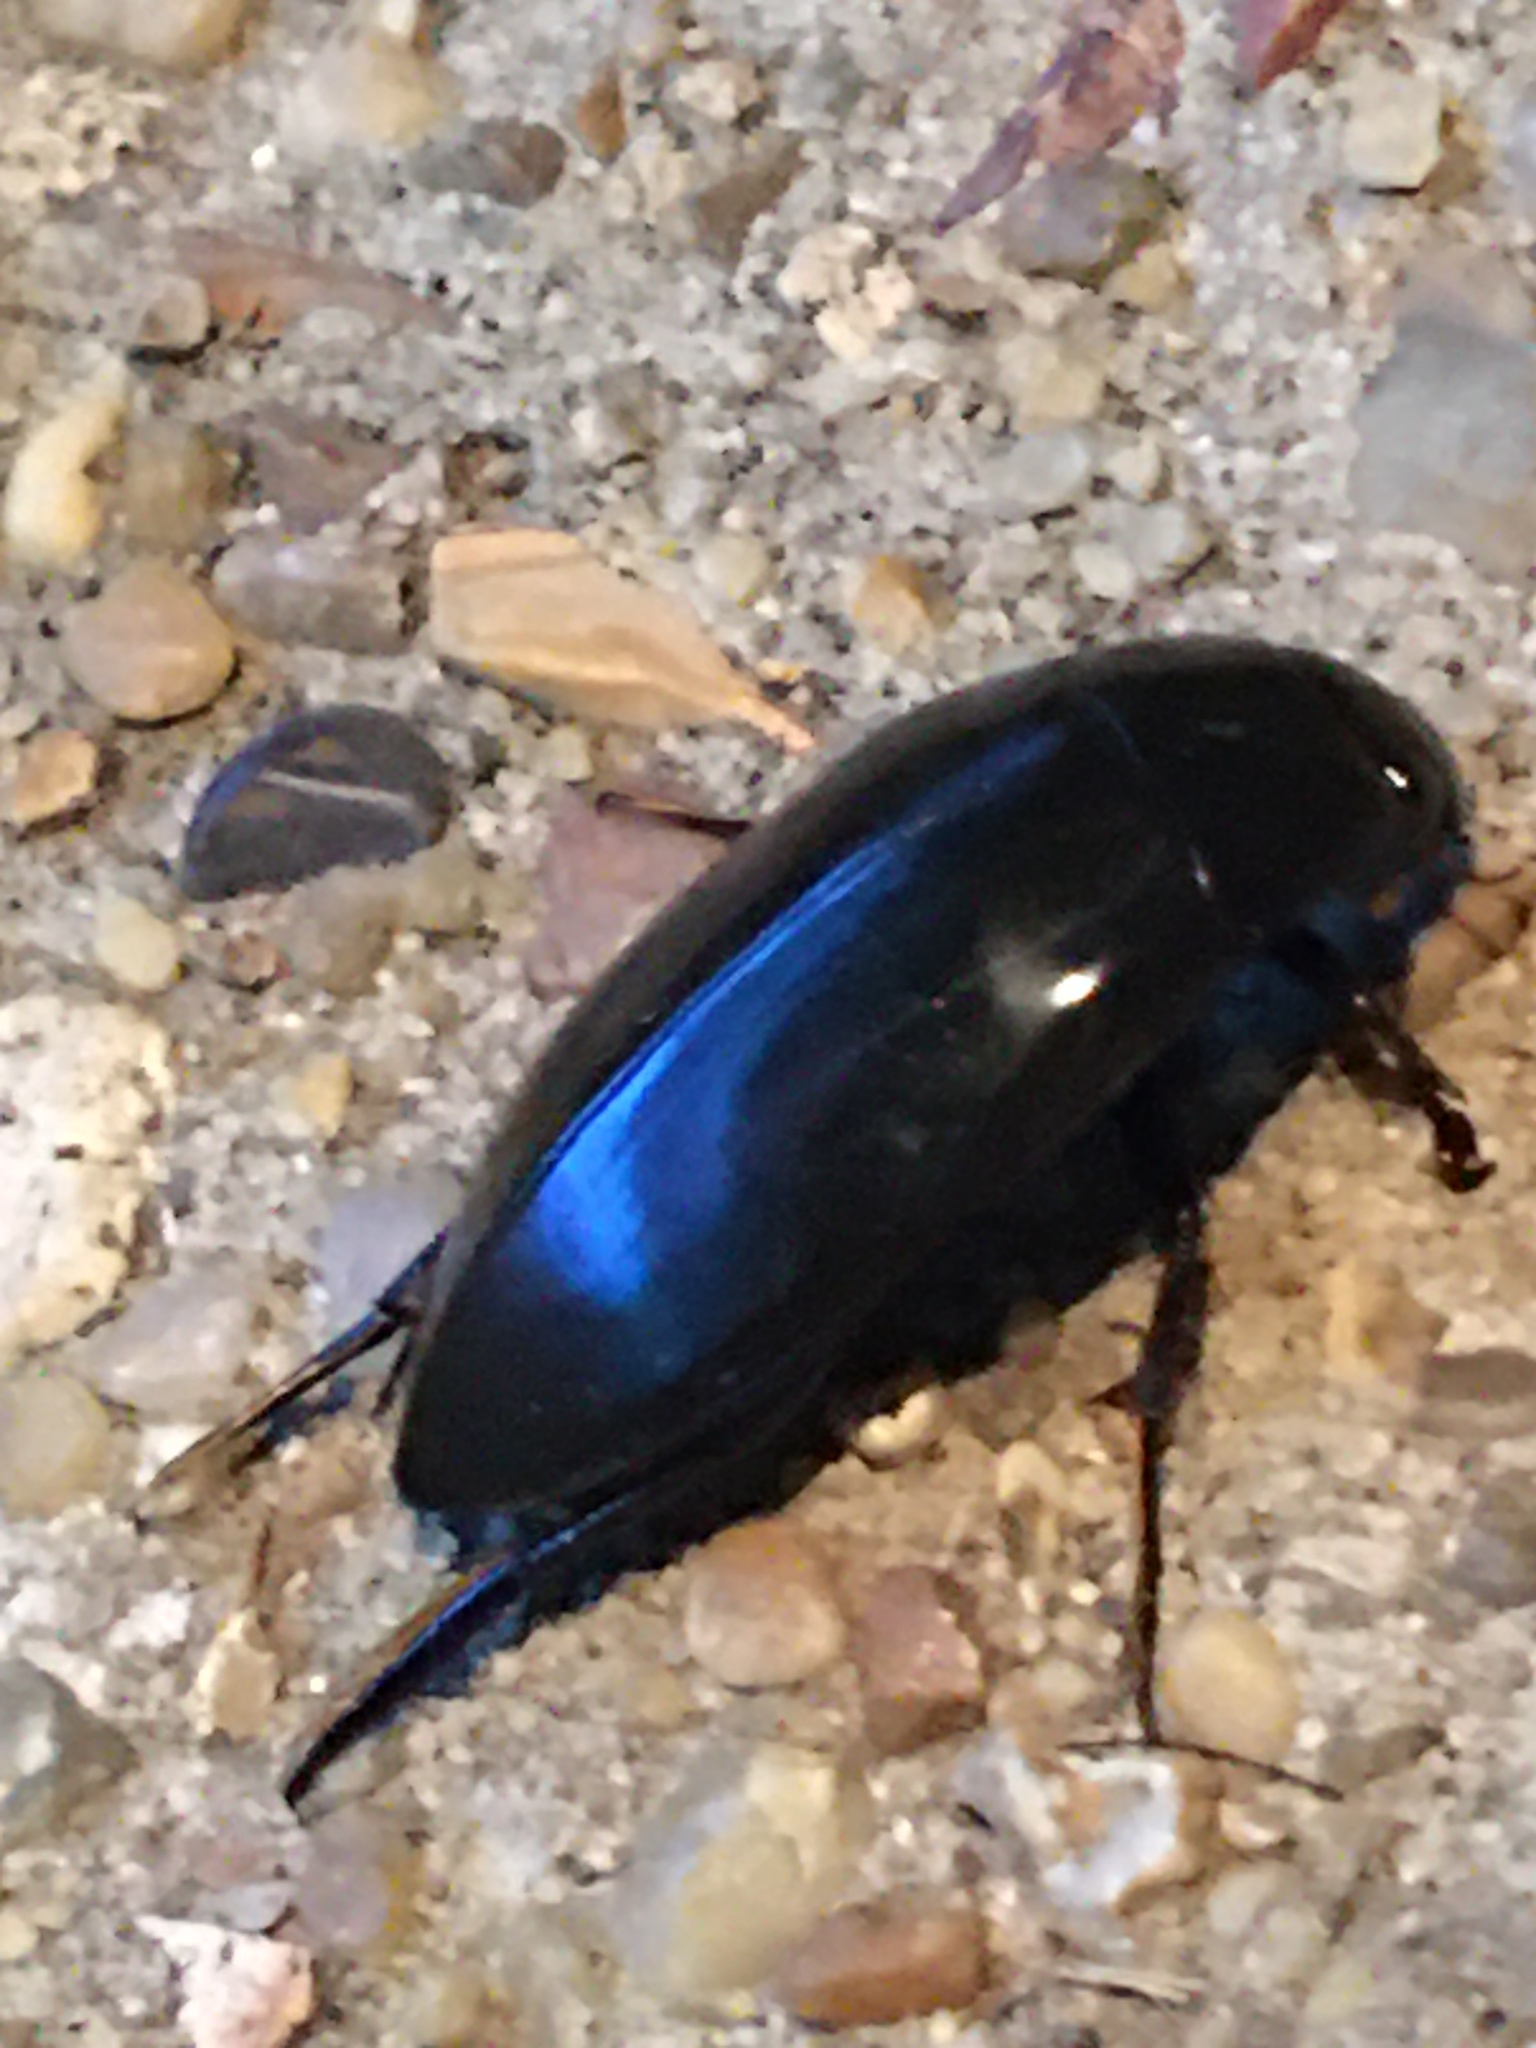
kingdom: Animalia
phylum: Arthropoda
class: Insecta
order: Coleoptera
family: Hydrophilidae
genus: Hydrophilus
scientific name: Hydrophilus triangularis
